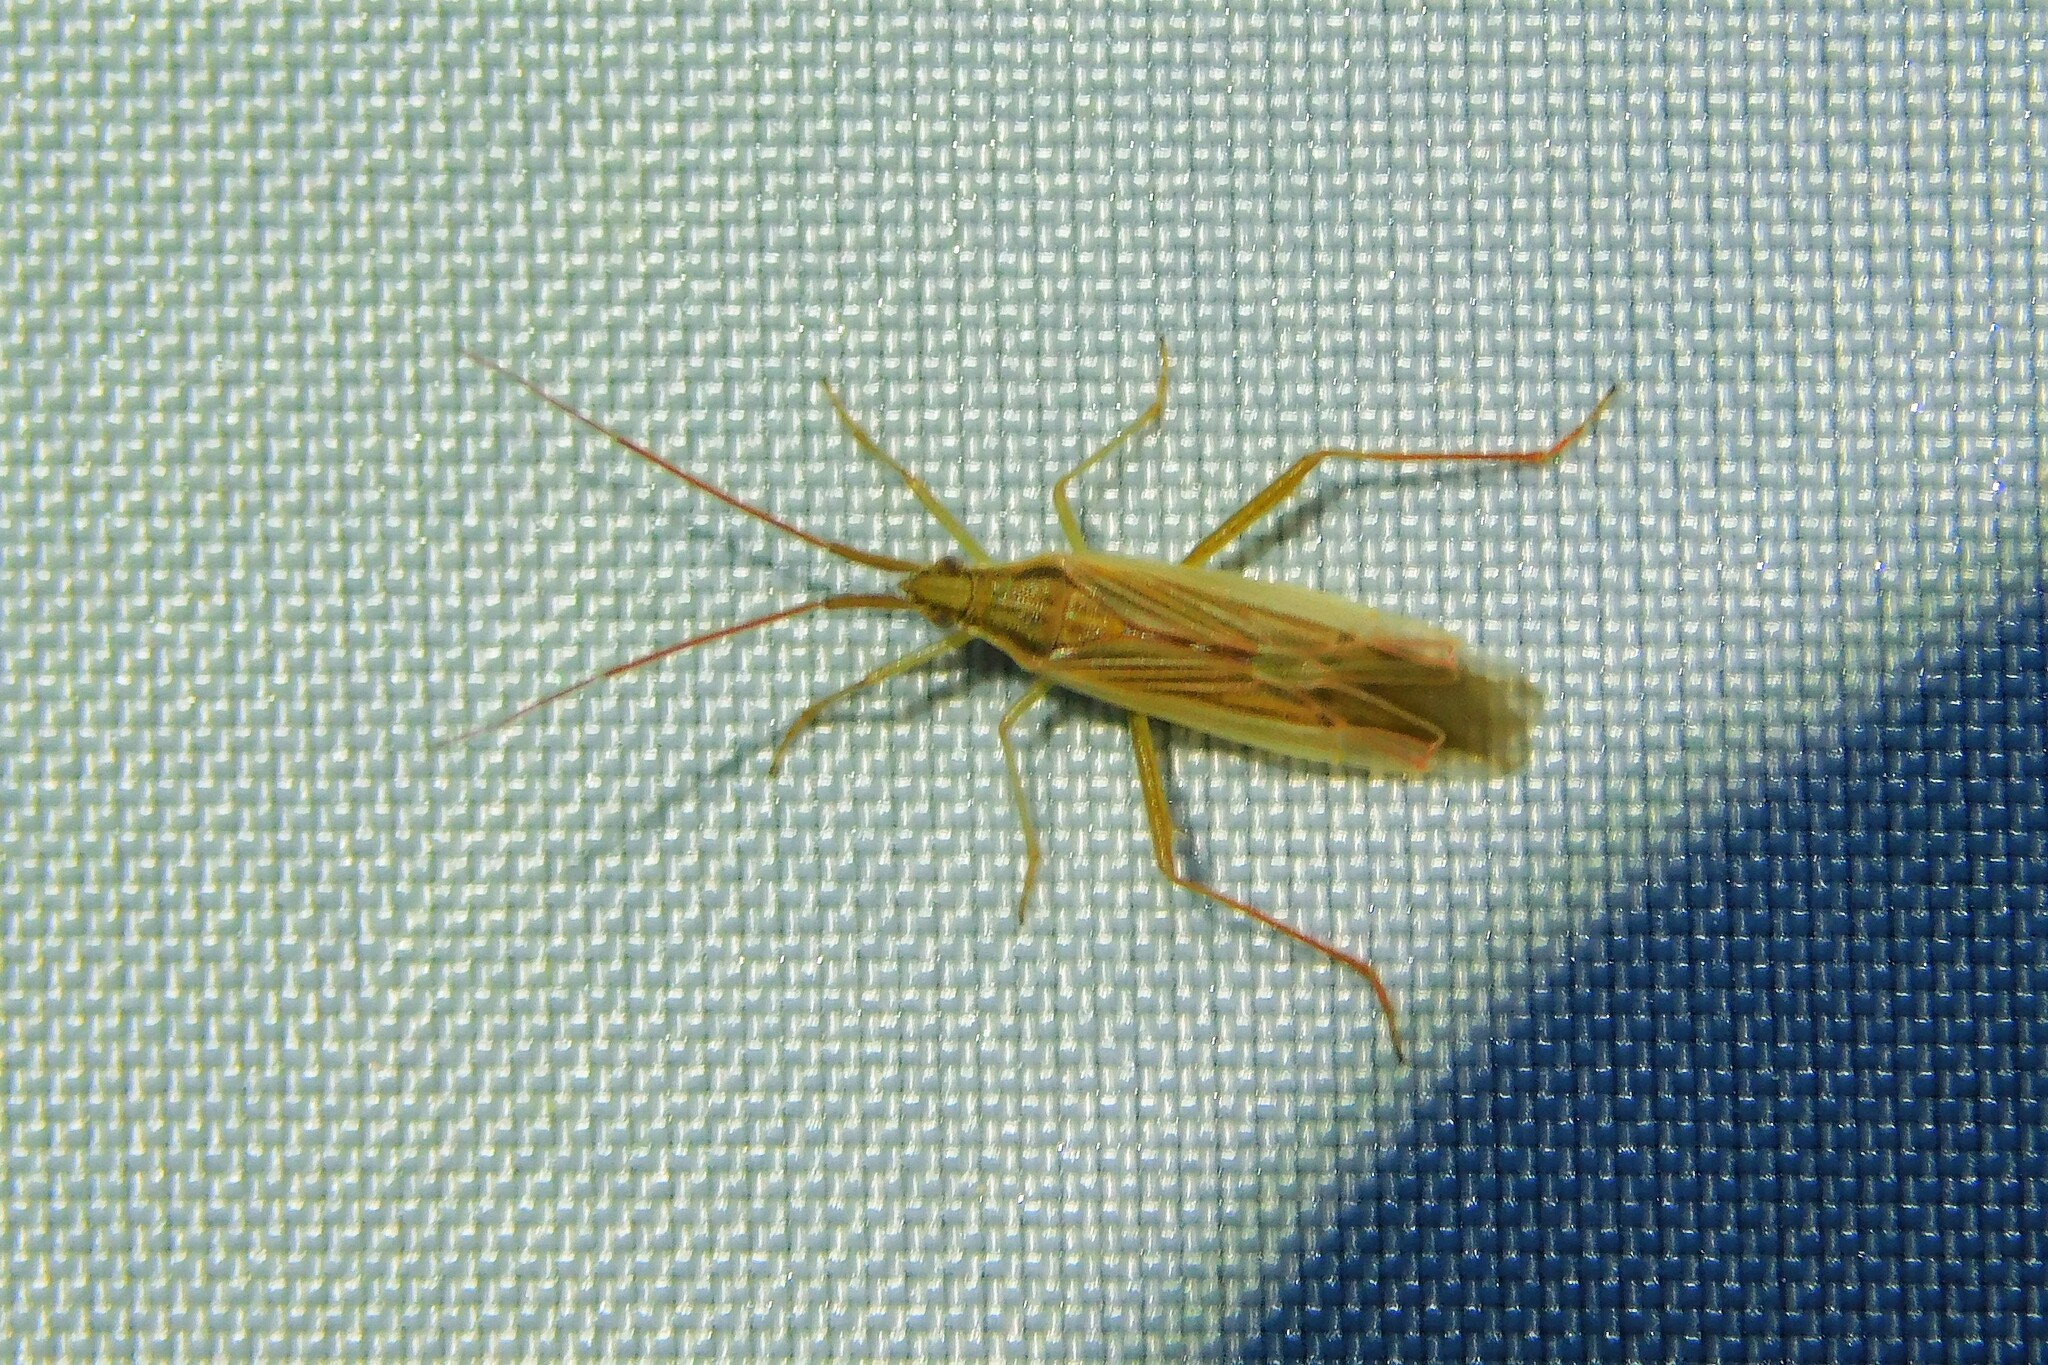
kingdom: Animalia
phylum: Arthropoda
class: Insecta
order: Hemiptera
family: Miridae
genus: Stenodema
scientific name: Stenodema calcarata
